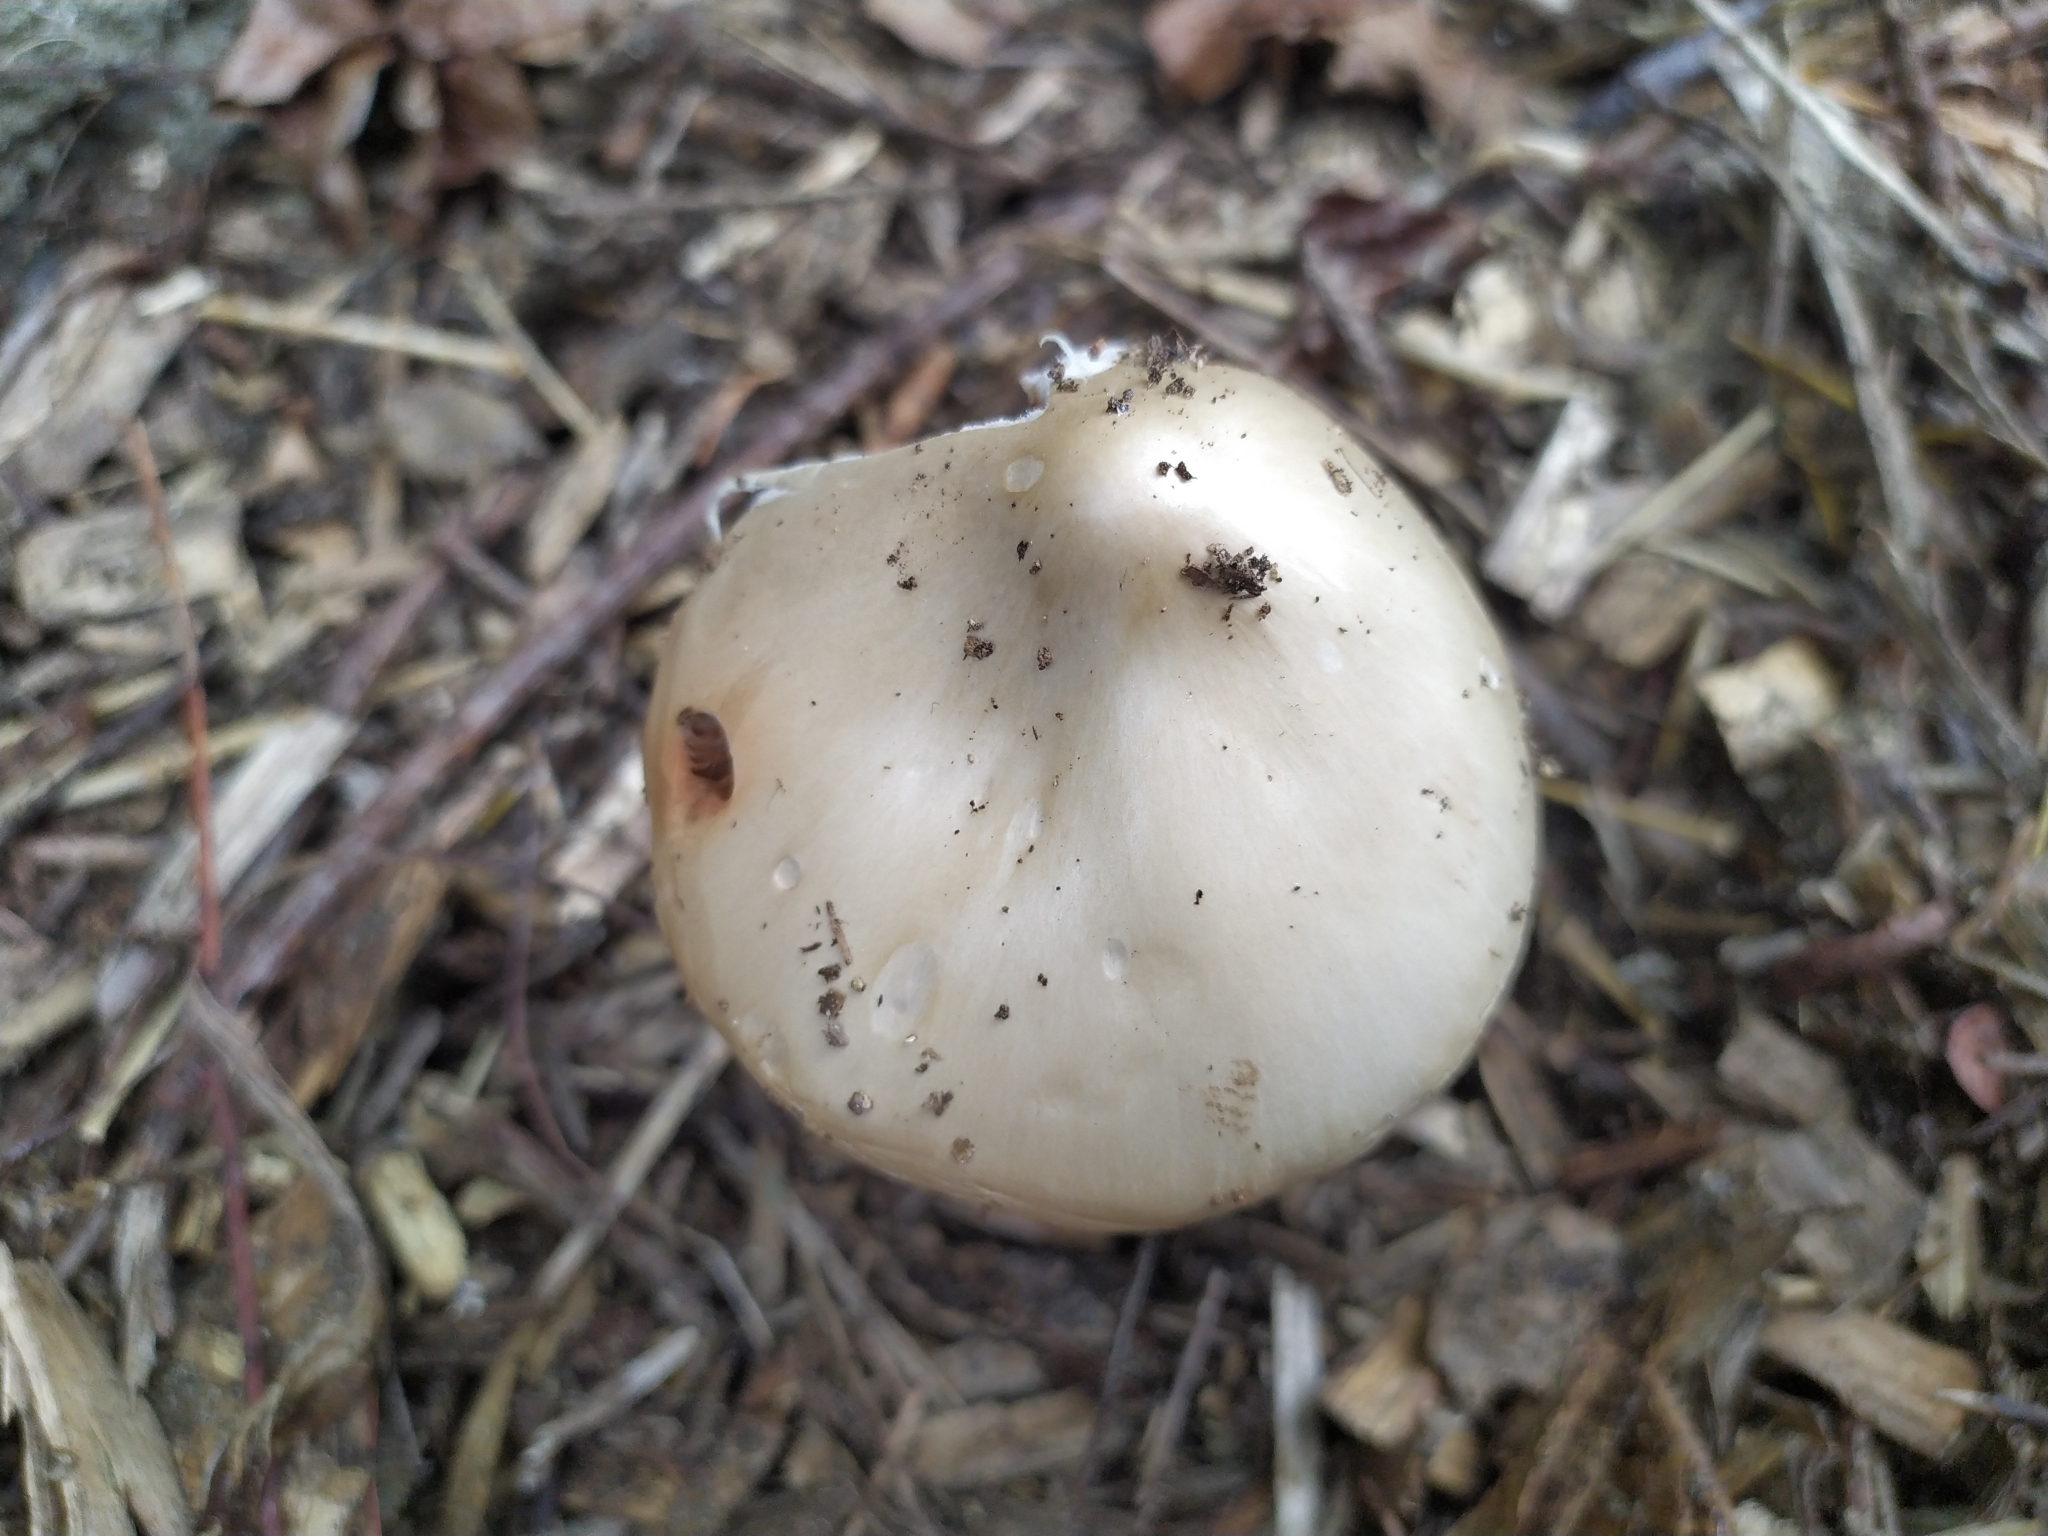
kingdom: Fungi
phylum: Basidiomycota
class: Agaricomycetes
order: Agaricales
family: Pluteaceae
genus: Volvopluteus
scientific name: Volvopluteus gloiocephalus
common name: Stubble rosegill
